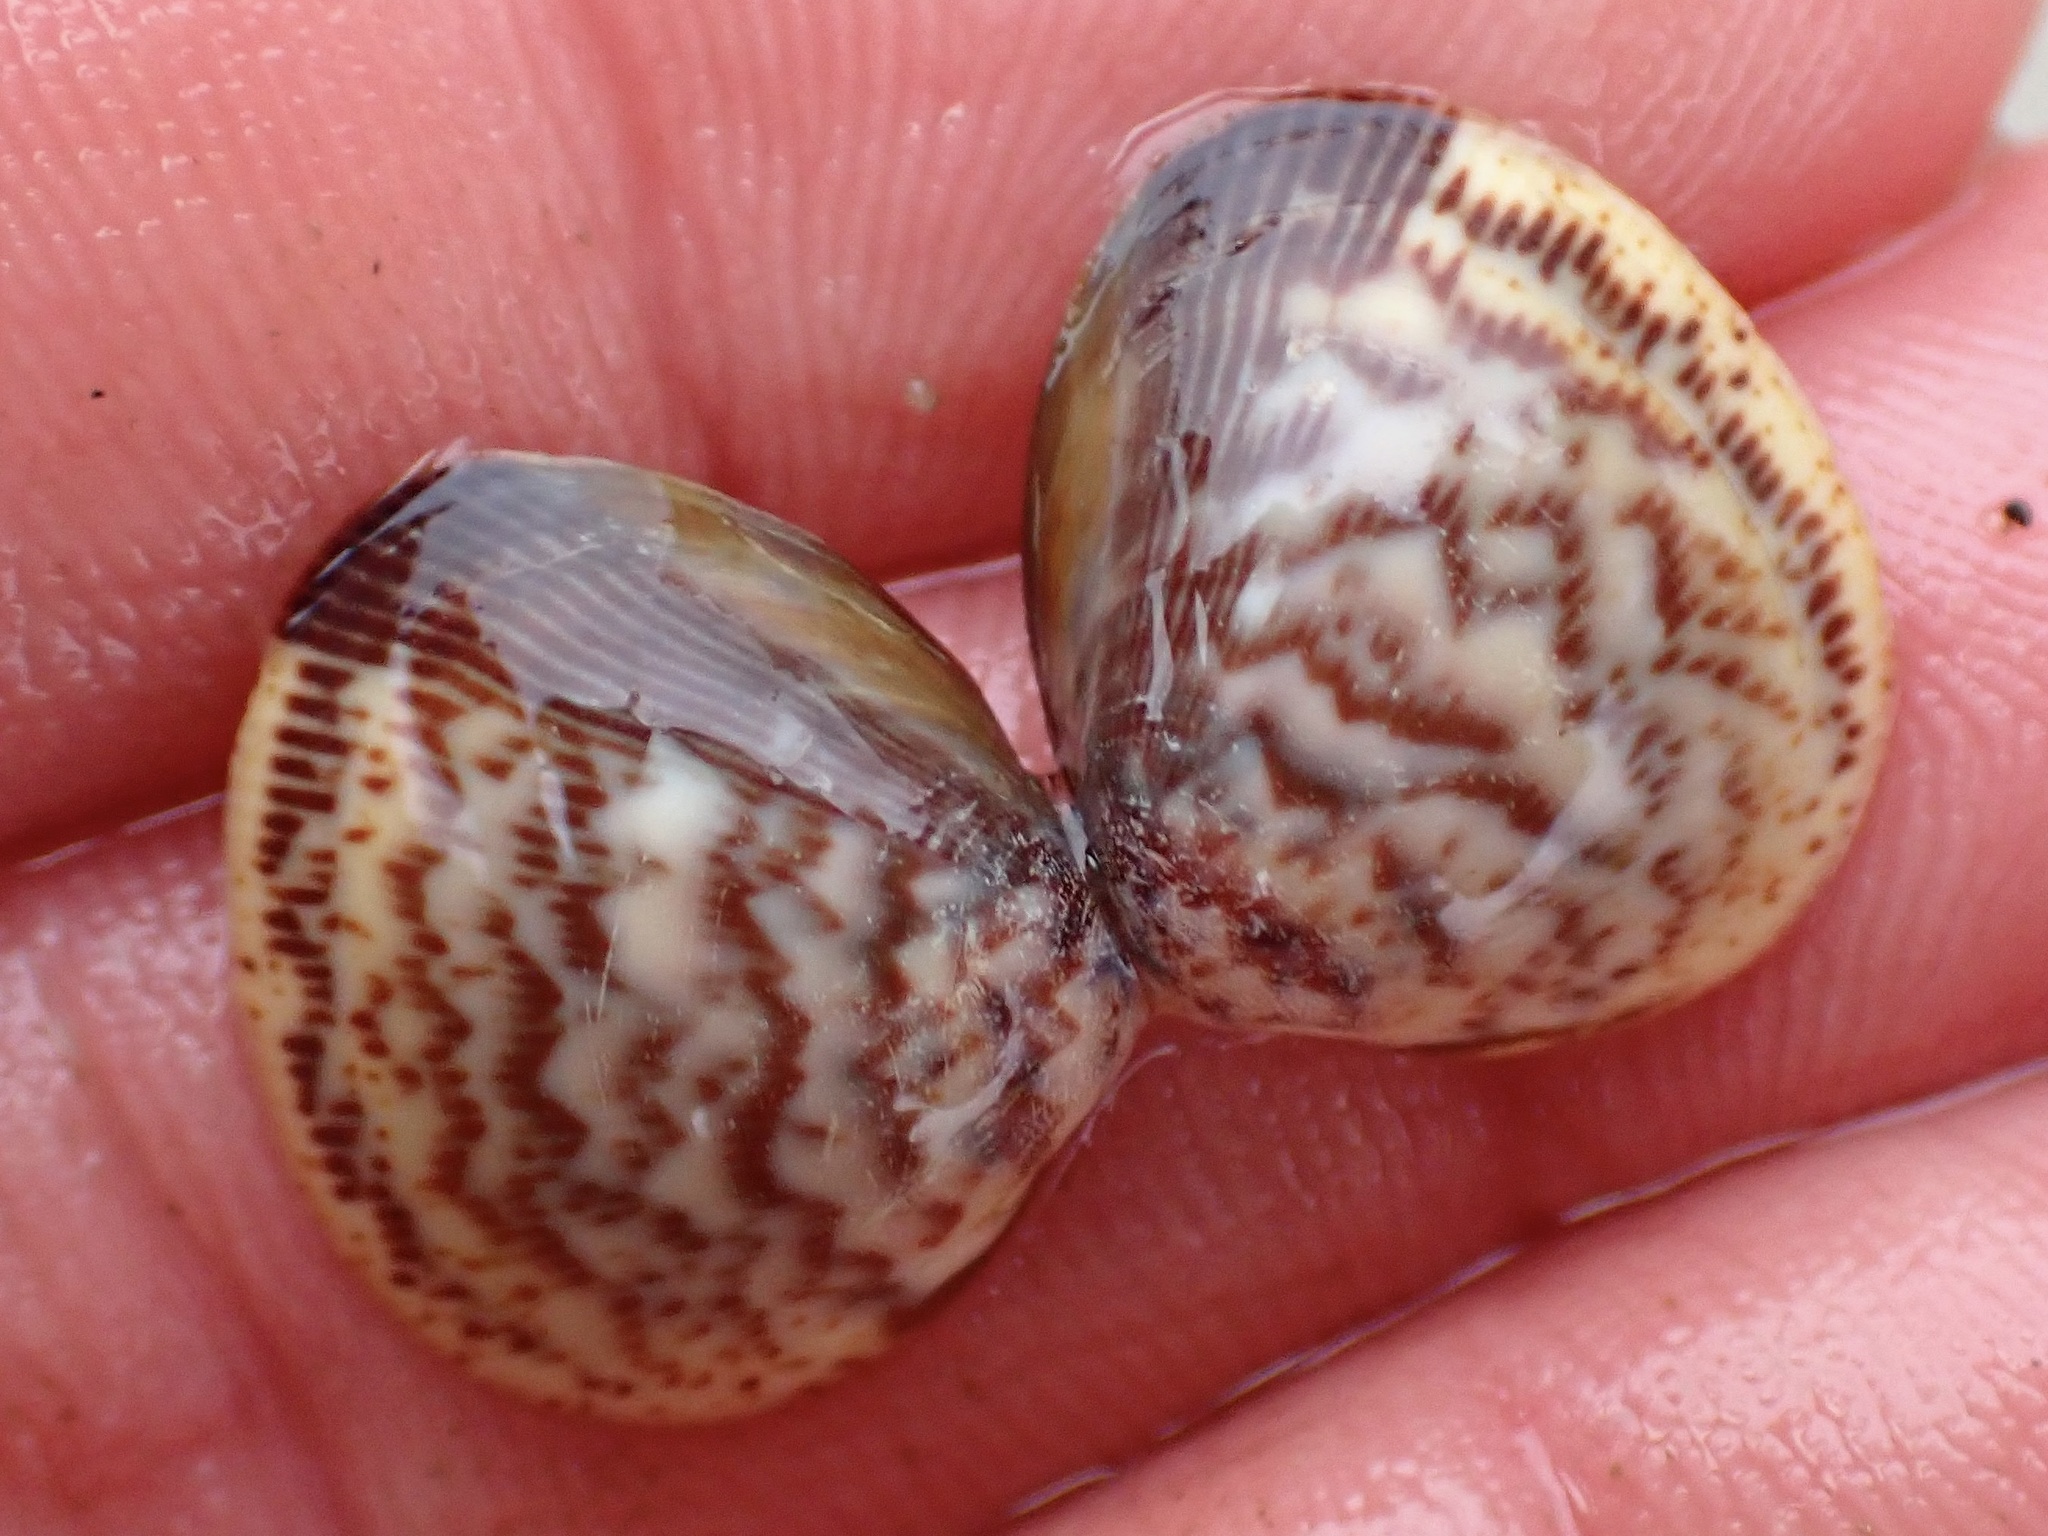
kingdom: Animalia
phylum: Mollusca
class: Bivalvia
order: Cardiida
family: Cardiidae
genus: Laevicardium
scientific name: Laevicardium substriatum
